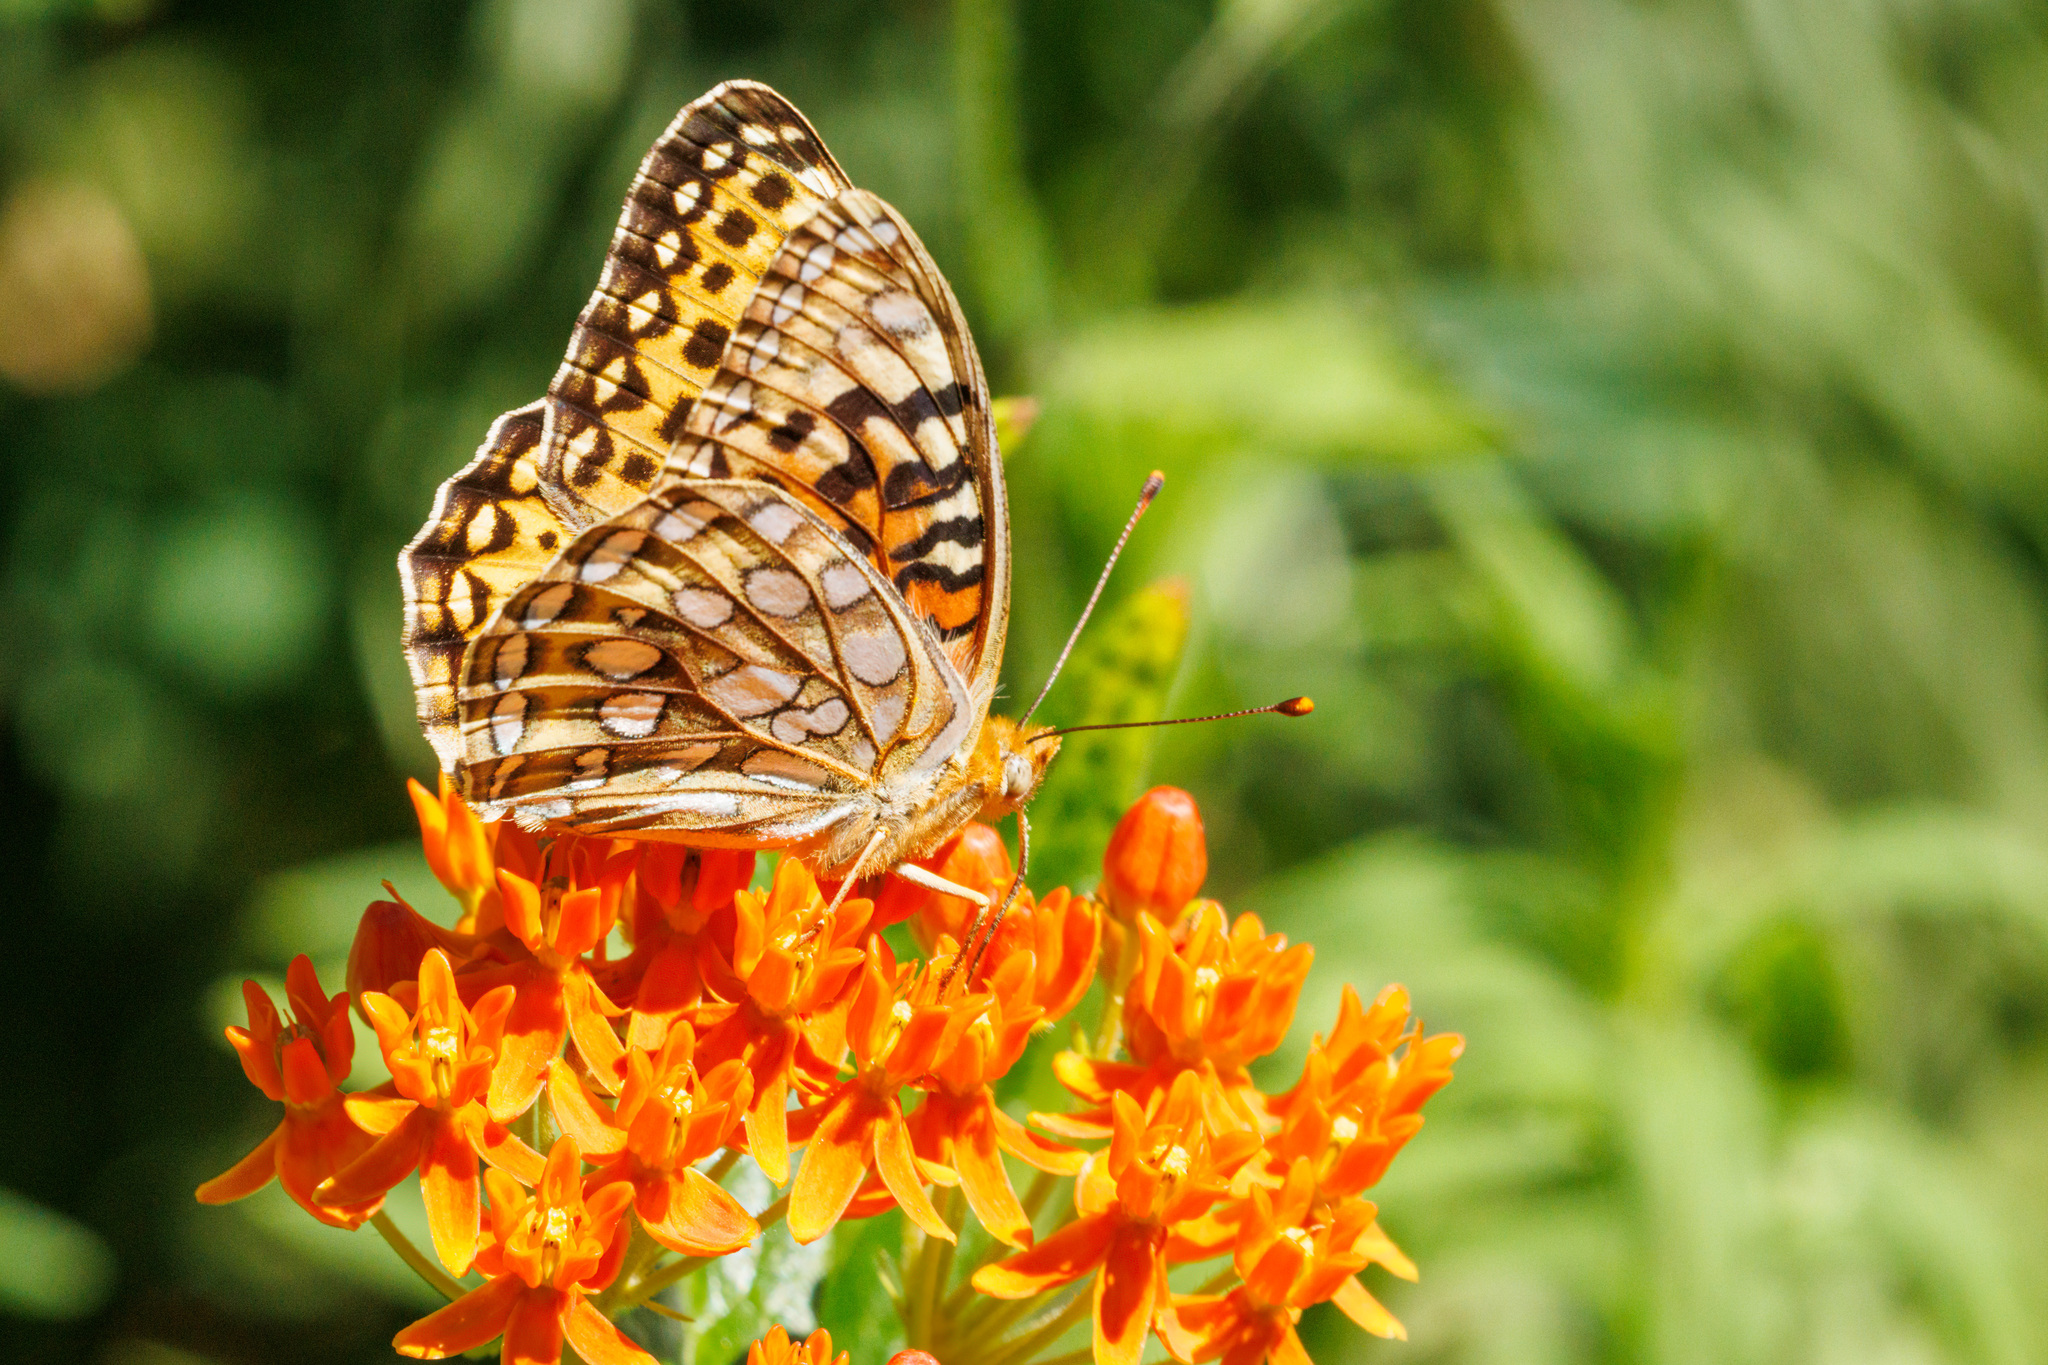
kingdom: Animalia
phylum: Arthropoda
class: Insecta
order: Lepidoptera
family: Nymphalidae
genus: Argynnis
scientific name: Argynnis coronis
